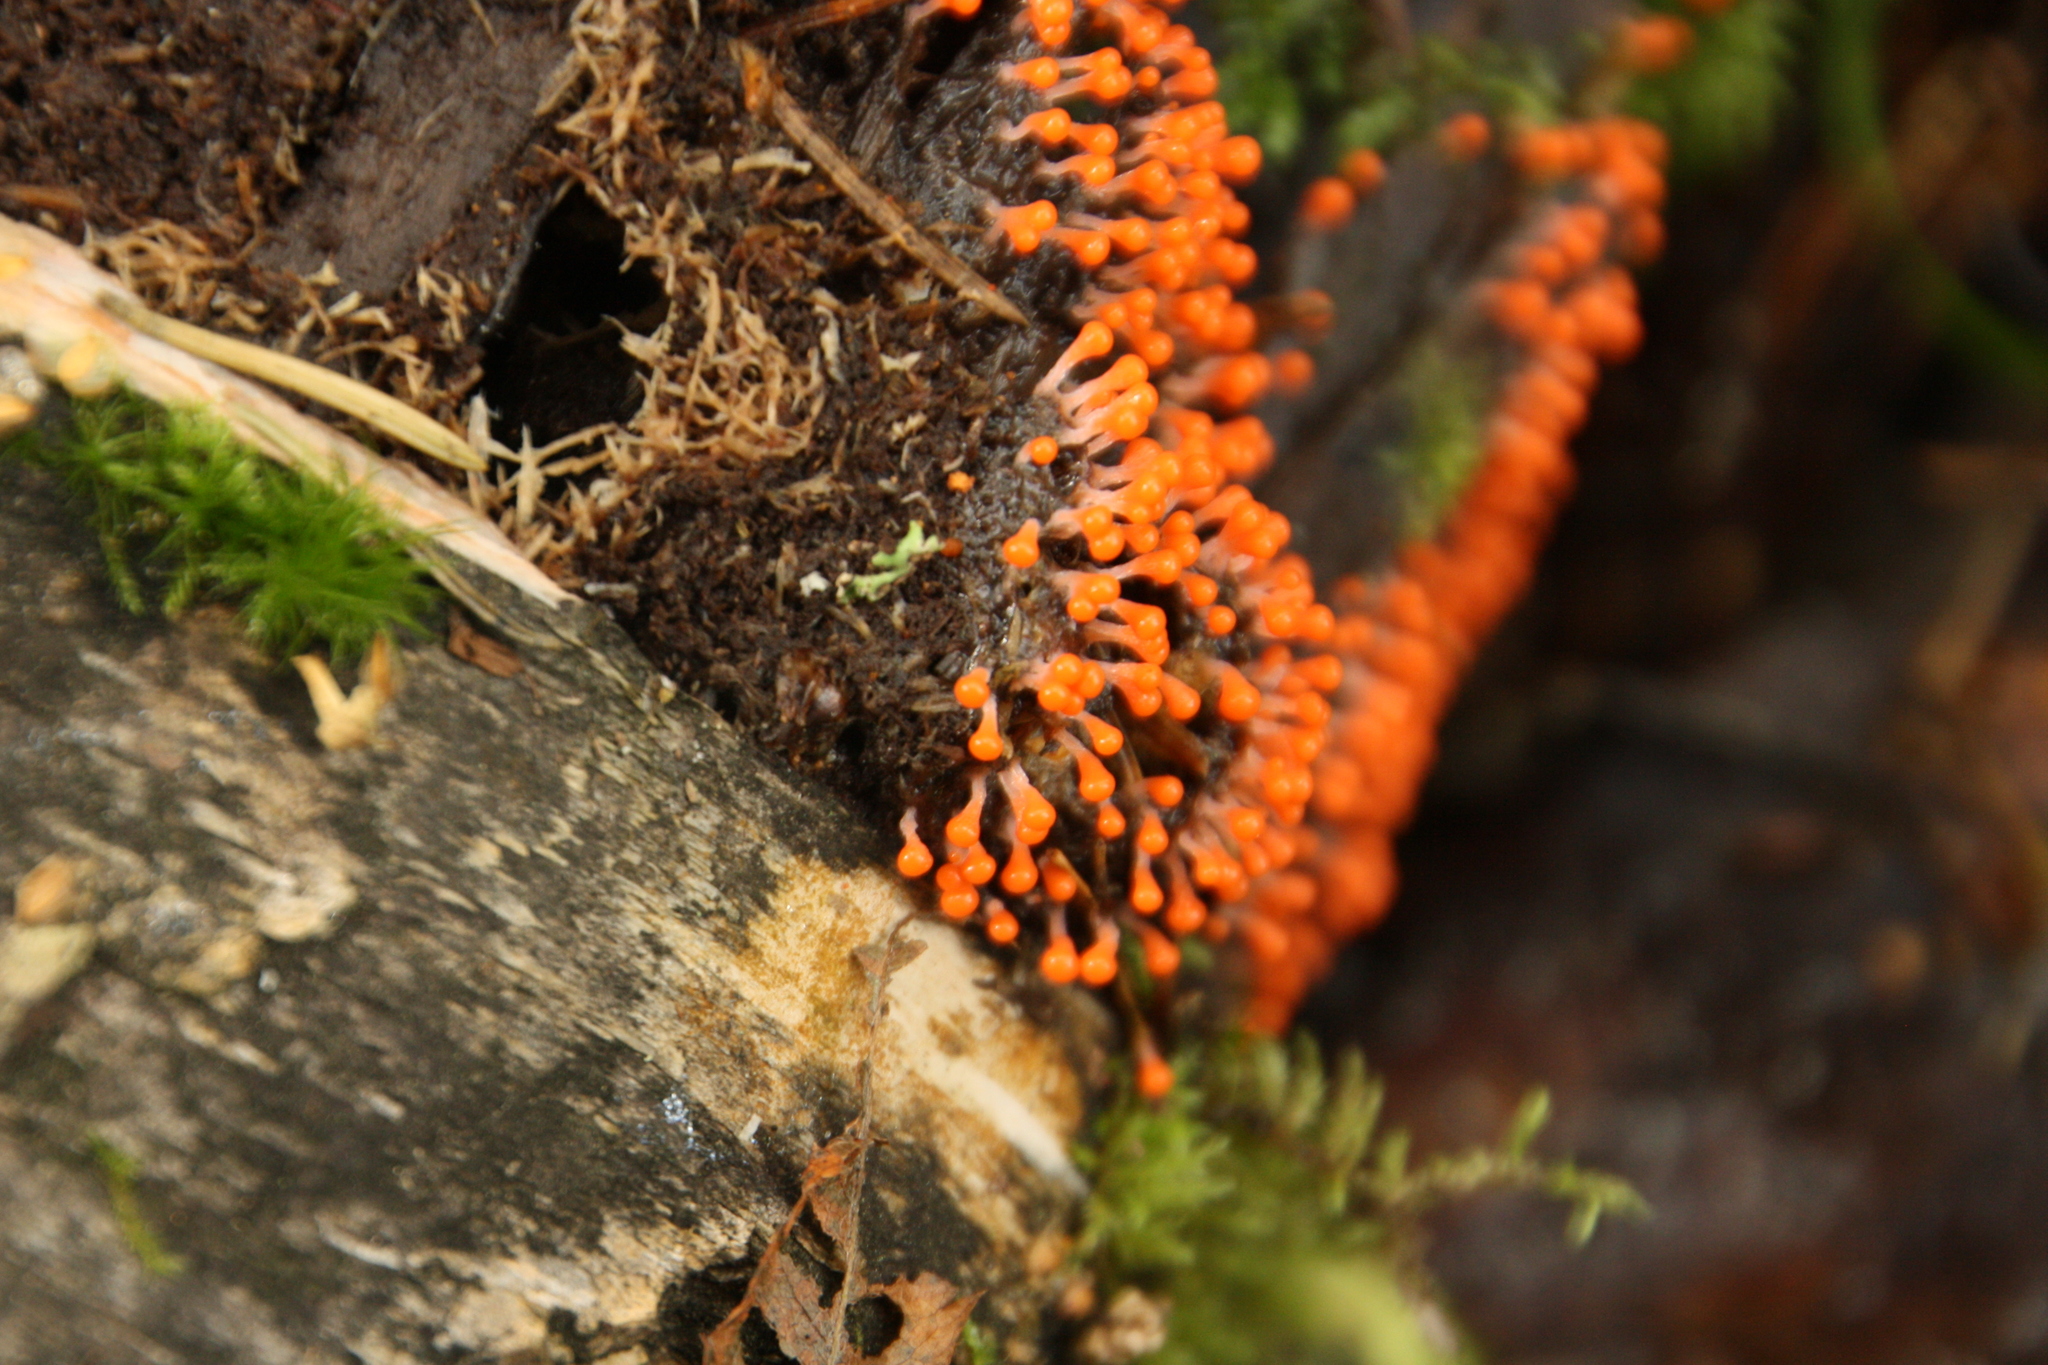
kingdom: Protozoa
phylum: Mycetozoa
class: Myxomycetes
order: Trichiales
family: Arcyriaceae
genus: Hemitrichia
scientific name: Hemitrichia decipiens
